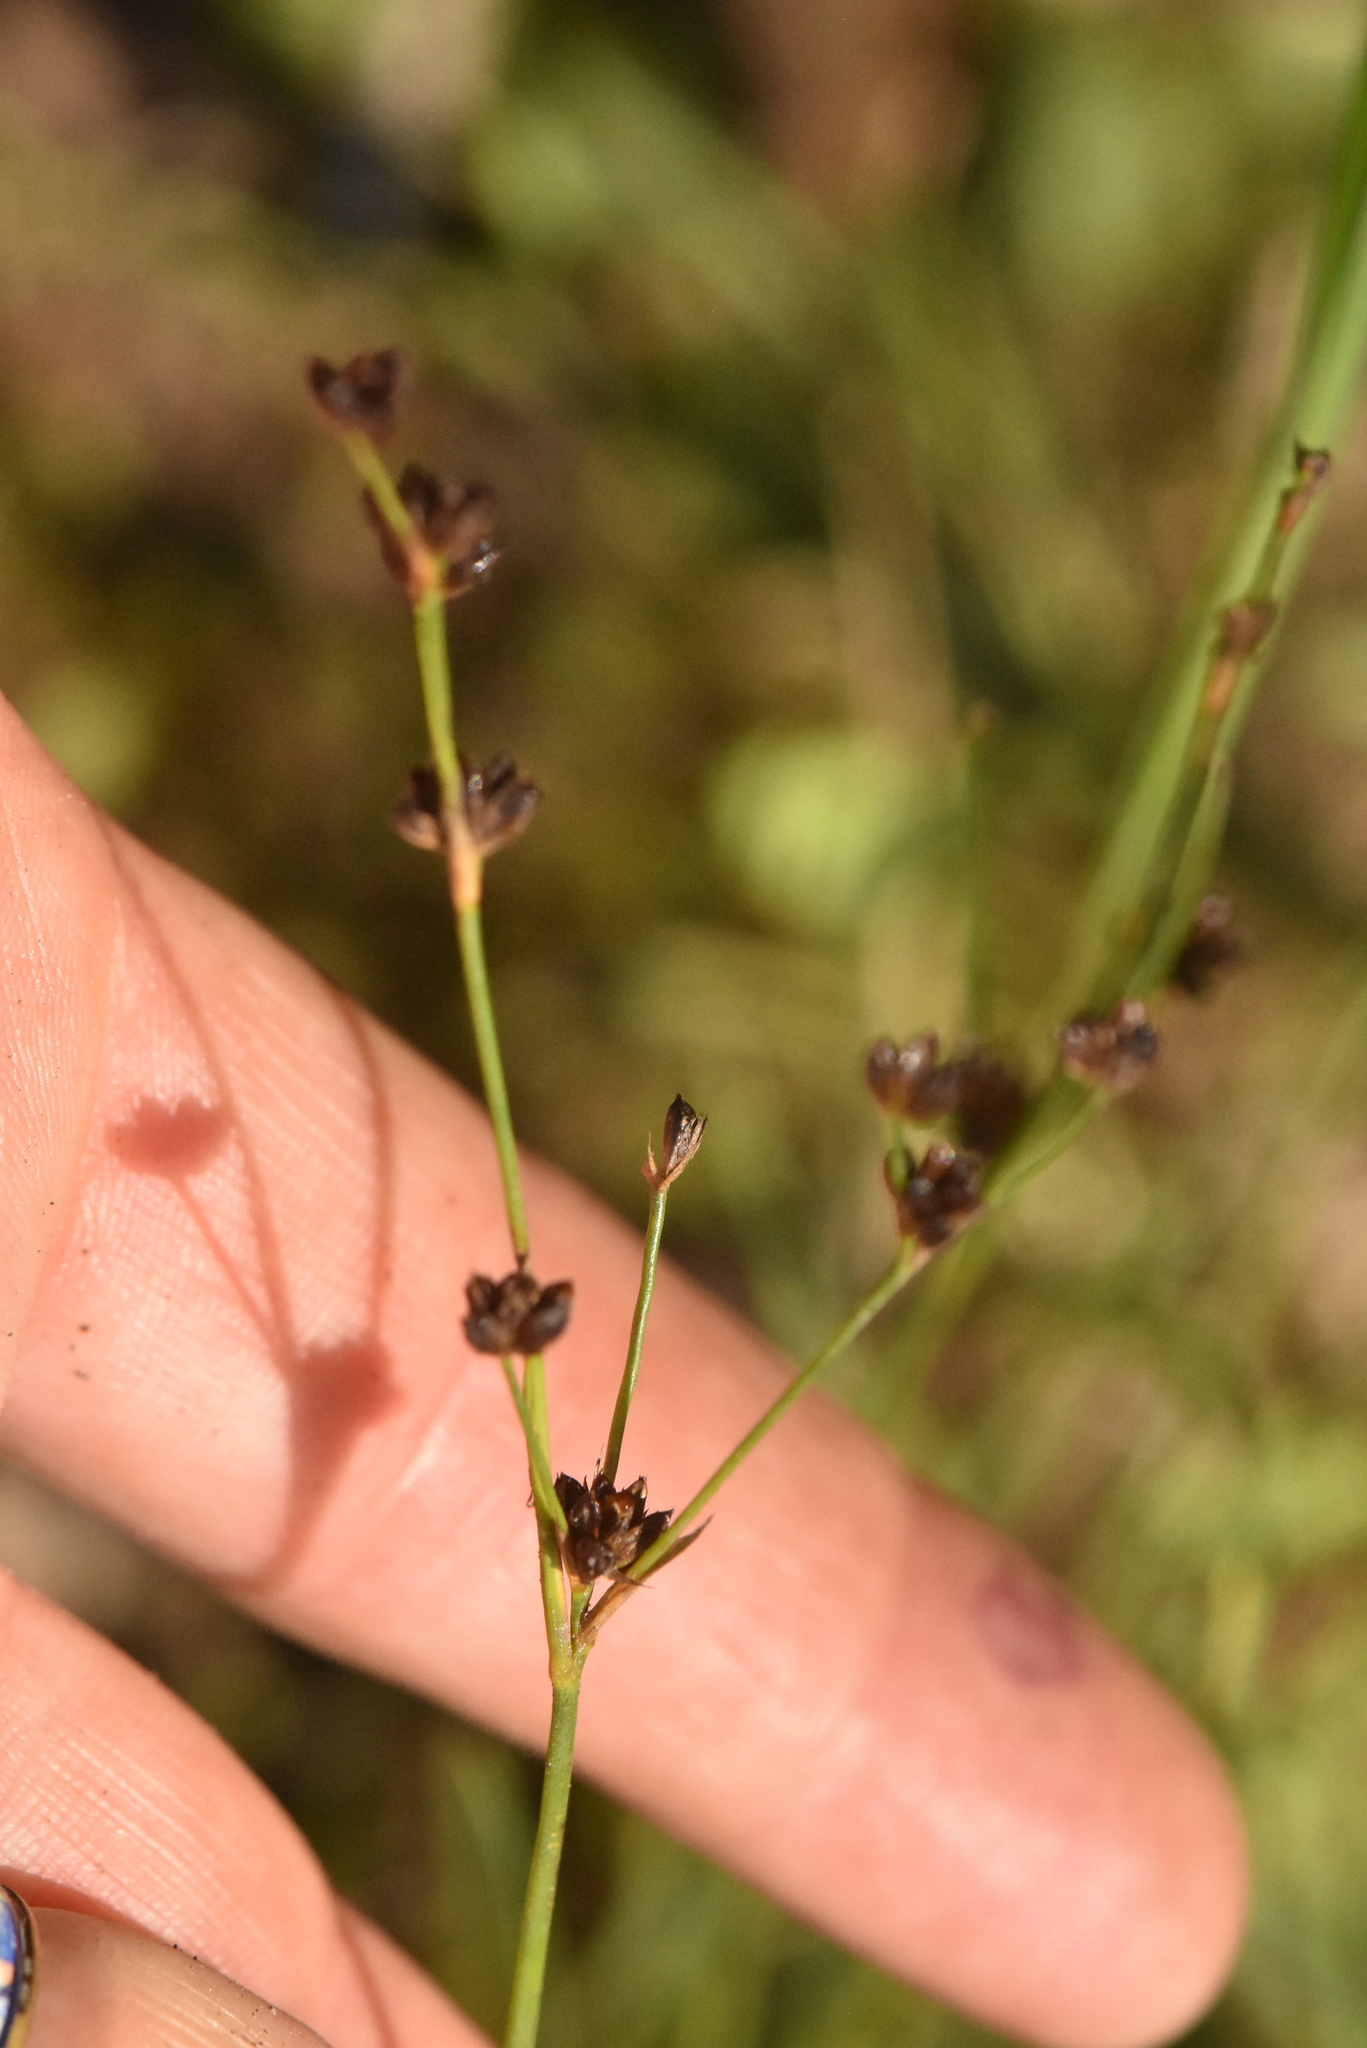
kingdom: Plantae
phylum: Tracheophyta
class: Liliopsida
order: Poales
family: Juncaceae
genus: Juncus
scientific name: Juncus alpinoarticulatus
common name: Alpine rush
